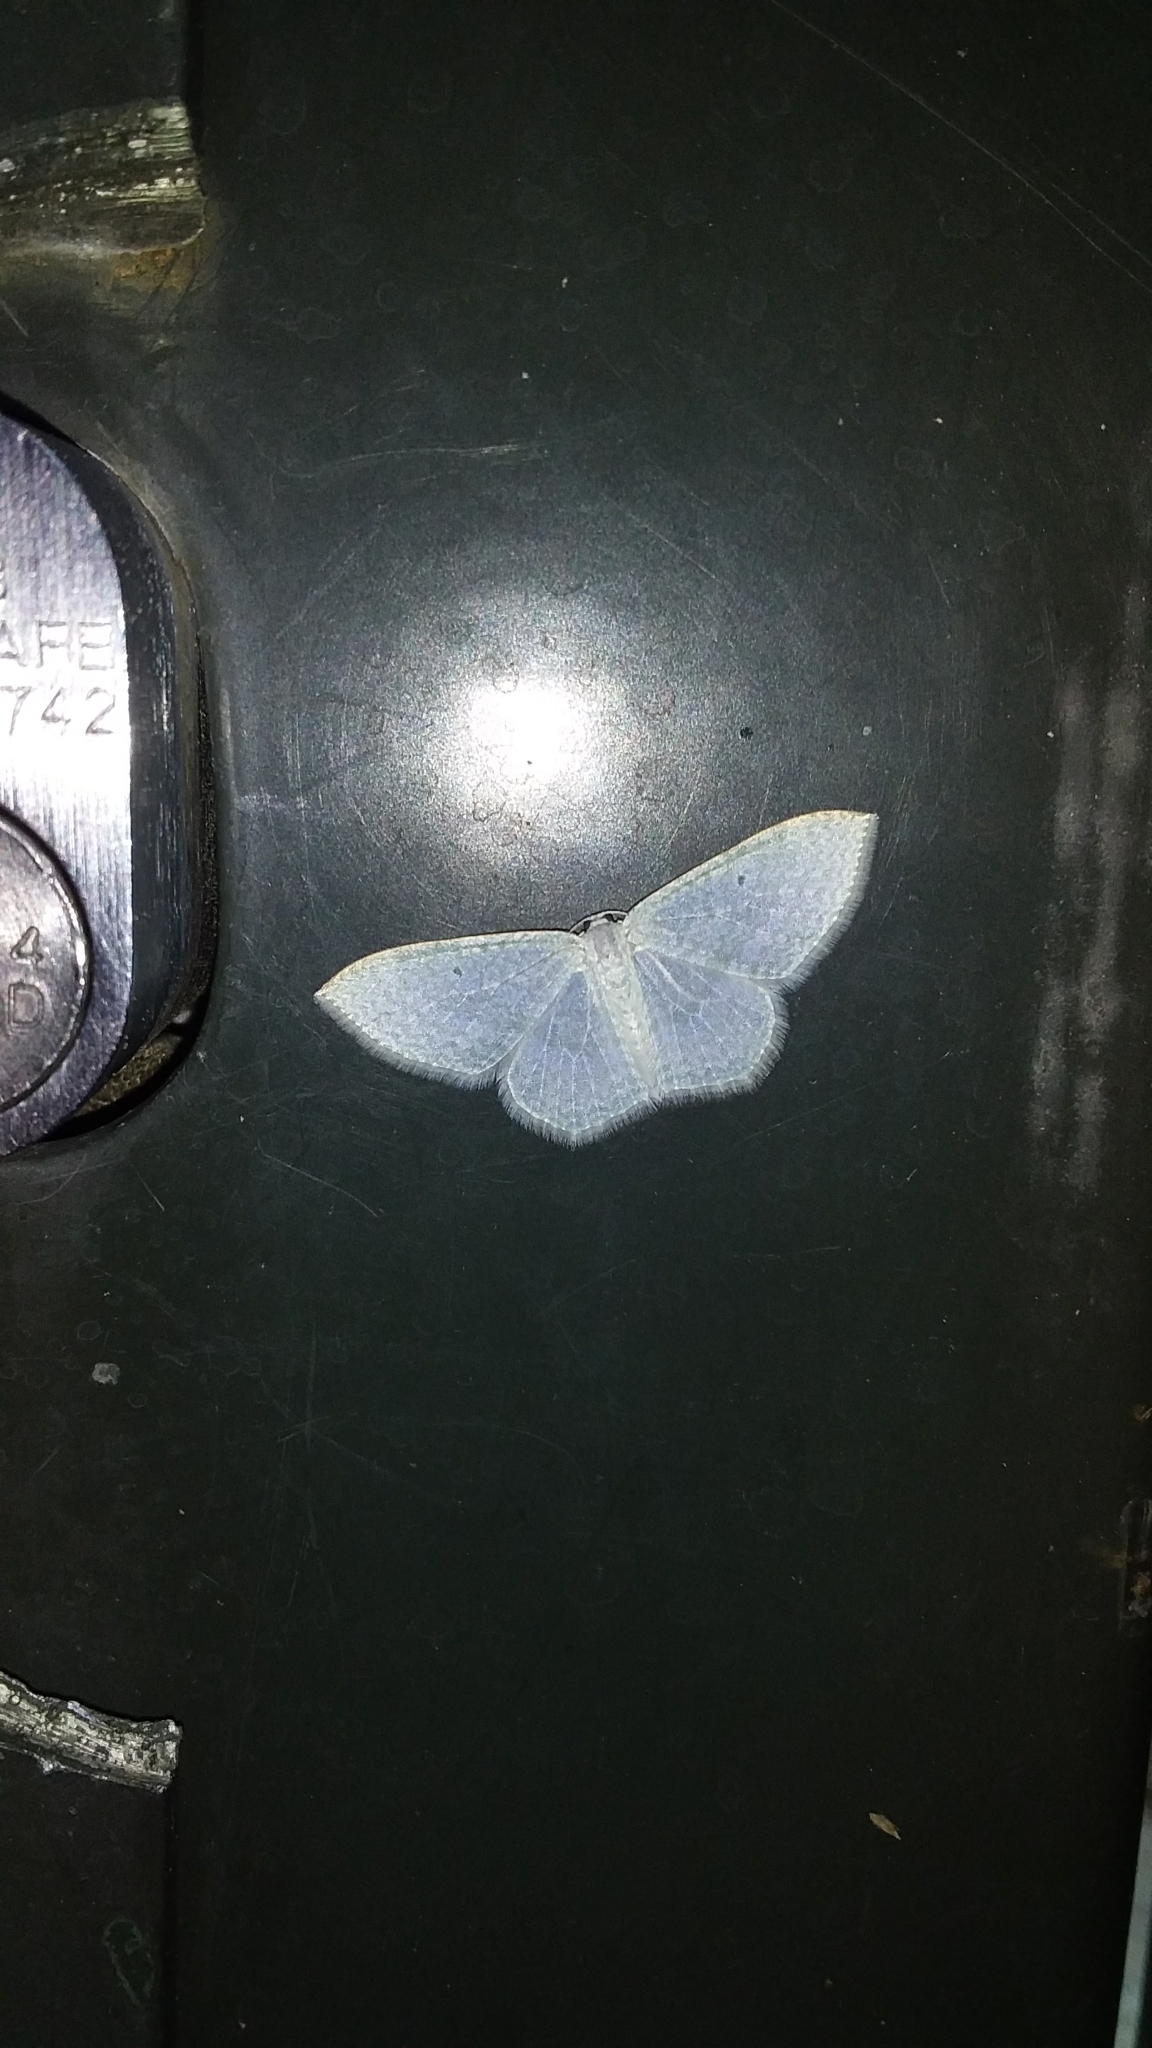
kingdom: Animalia
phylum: Arthropoda
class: Insecta
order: Lepidoptera
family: Geometridae
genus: Poecilasthena
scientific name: Poecilasthena pulchraria
